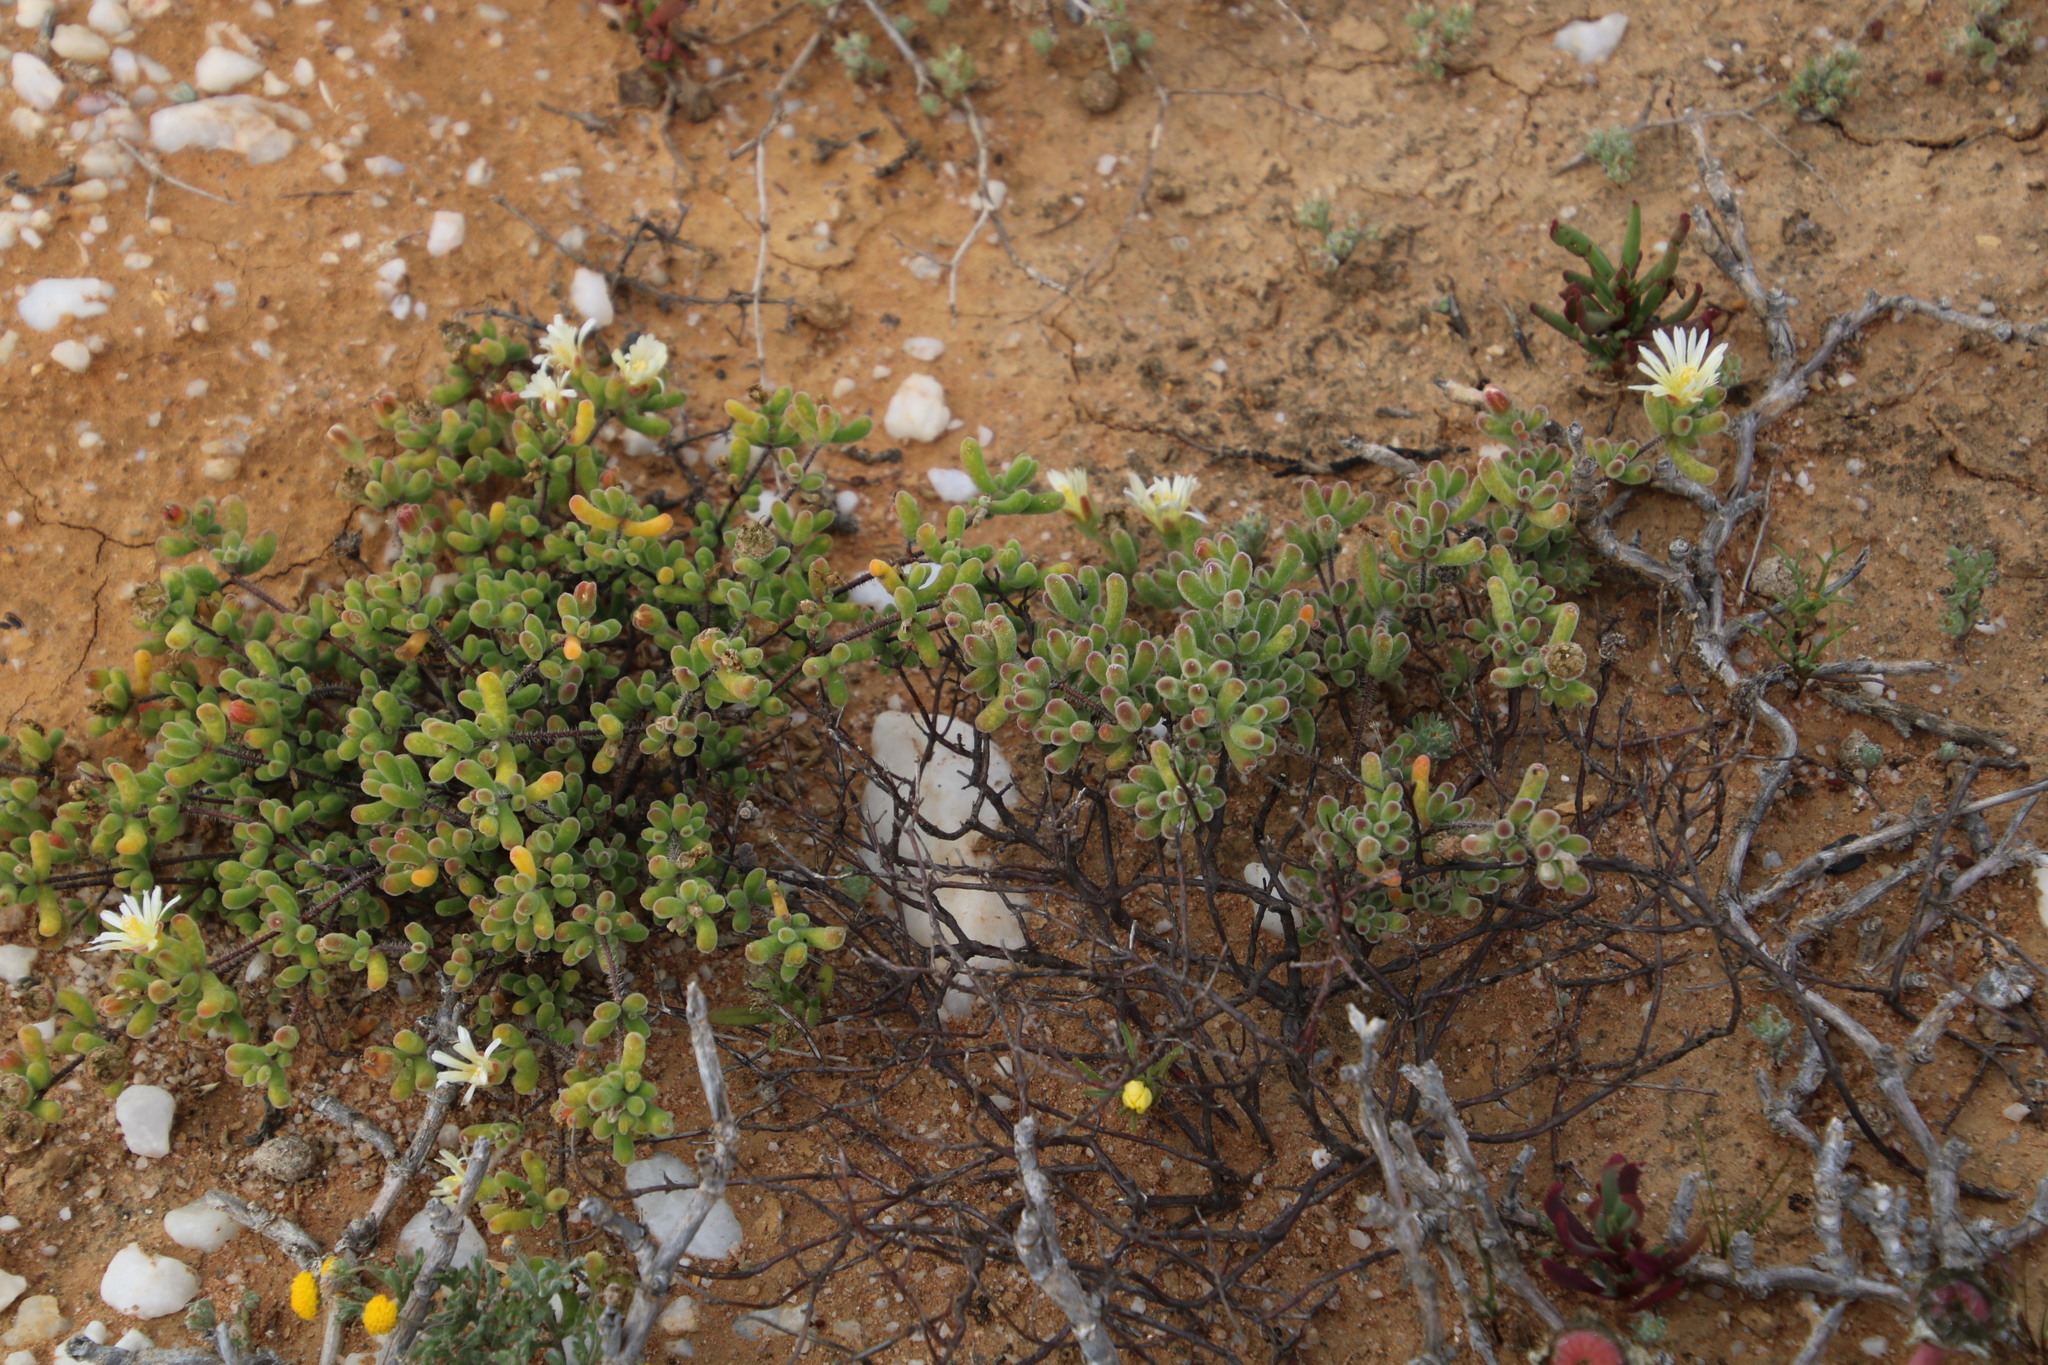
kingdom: Plantae
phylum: Tracheophyta
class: Magnoliopsida
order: Caryophyllales
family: Aizoaceae
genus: Drosanthemum
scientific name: Drosanthemum schoenlandianum
